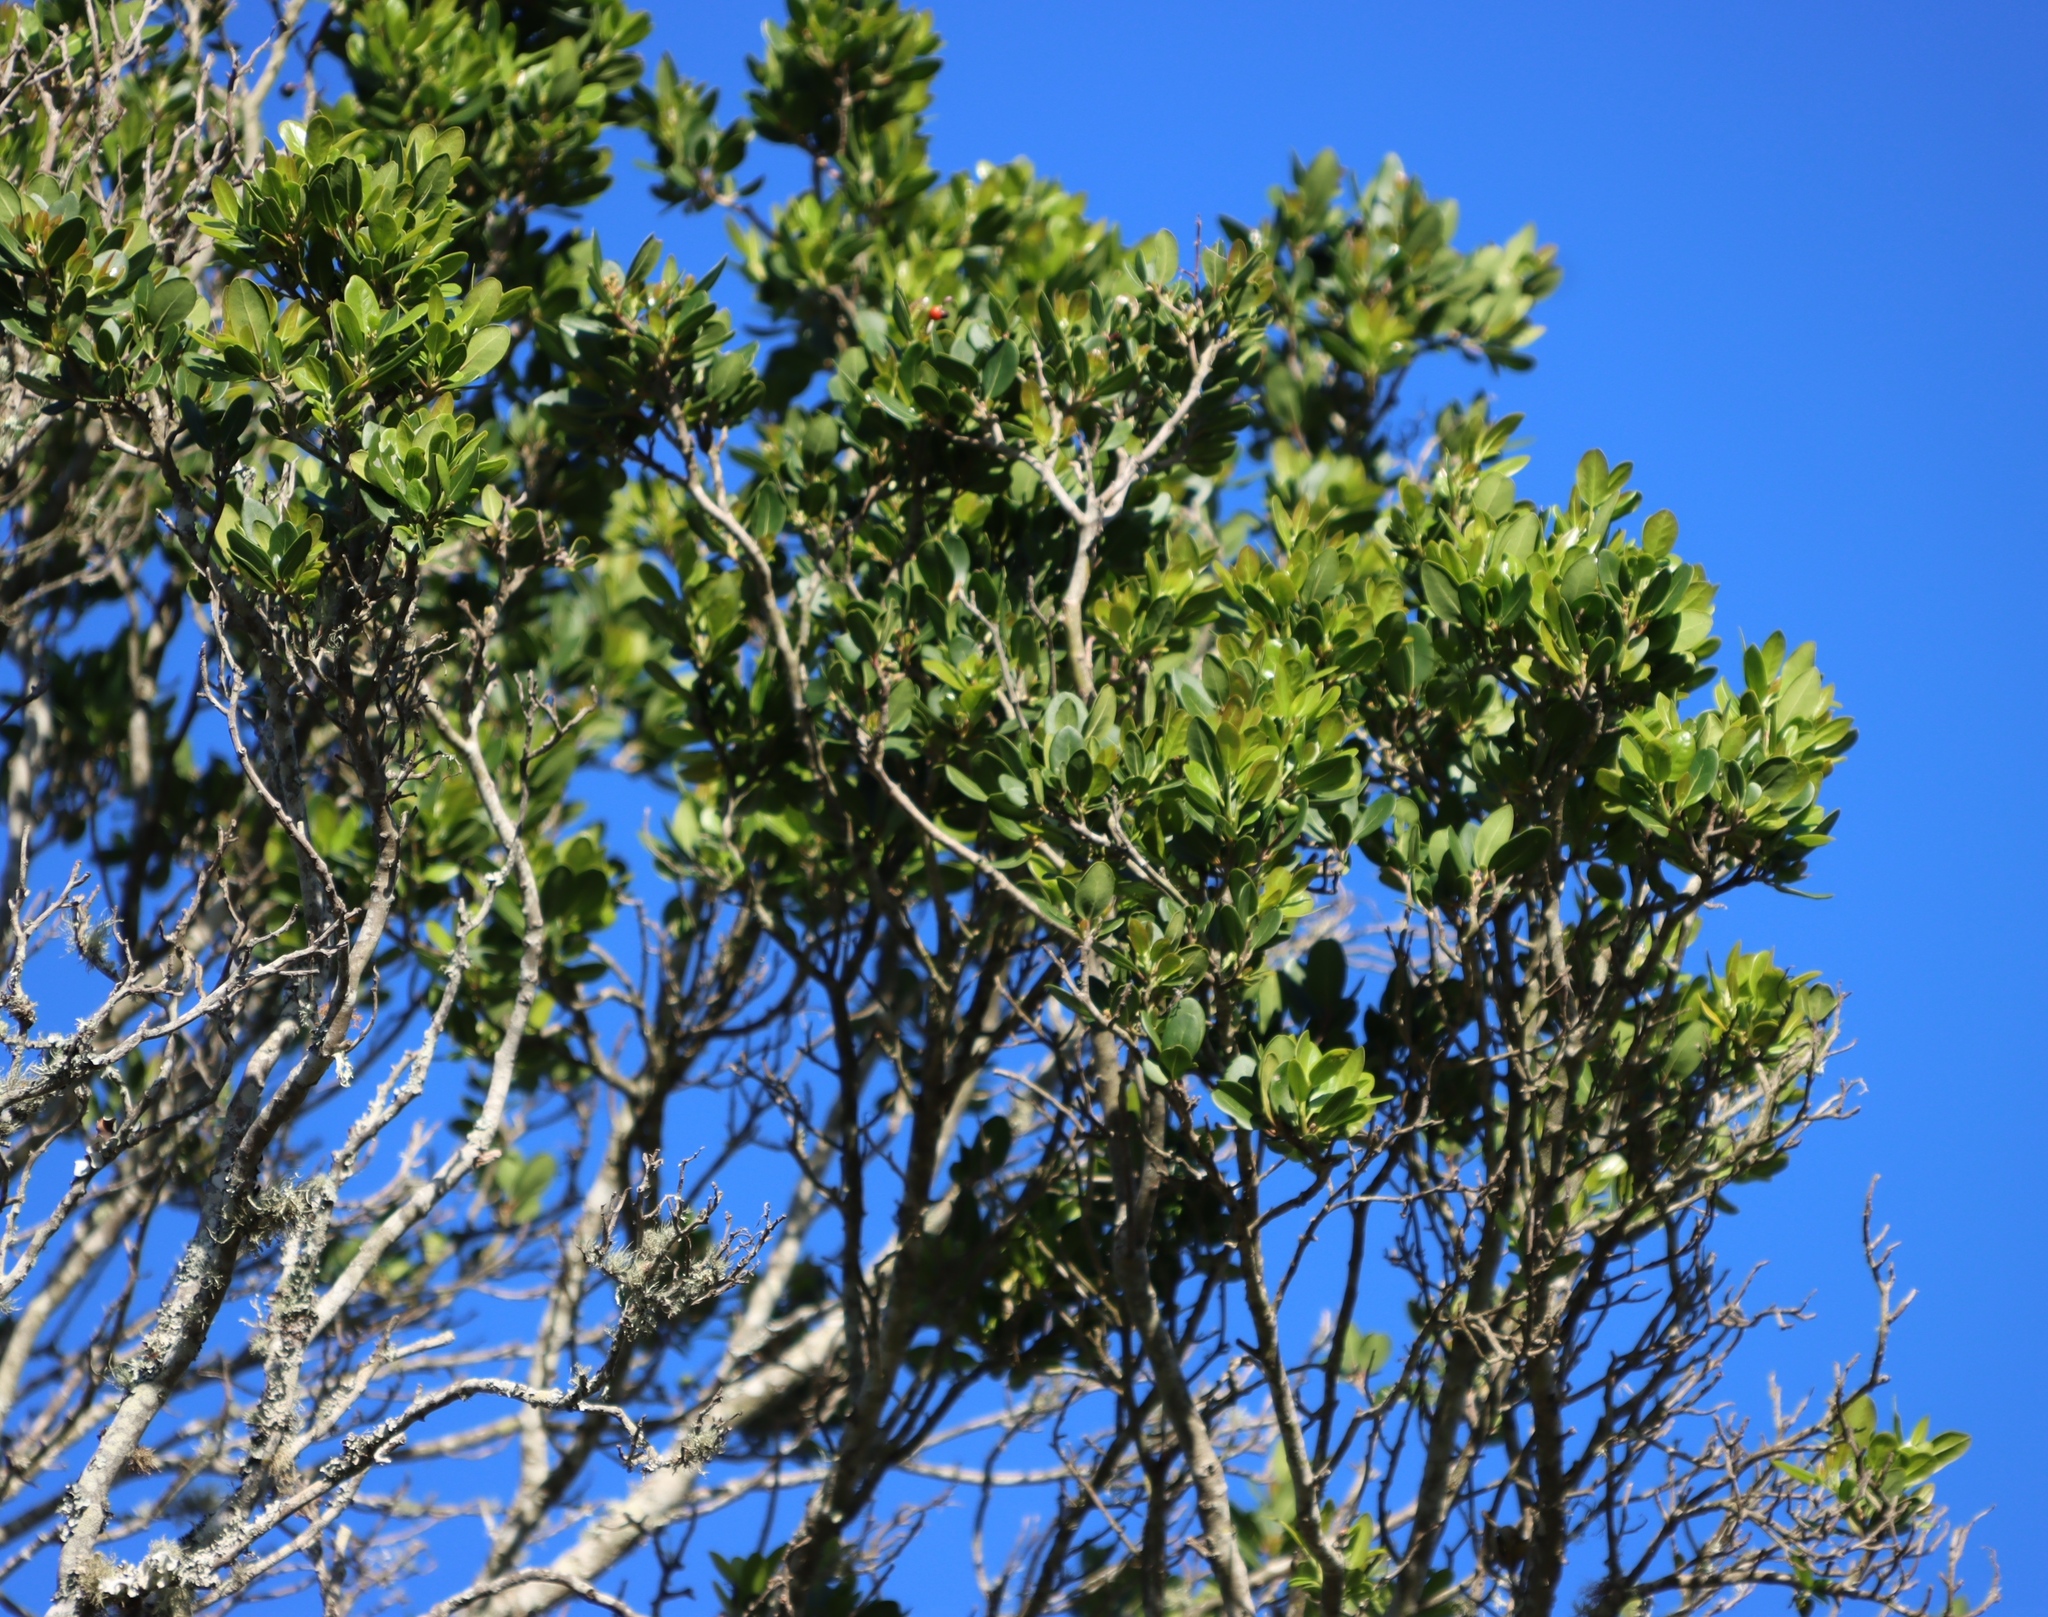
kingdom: Plantae
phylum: Tracheophyta
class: Magnoliopsida
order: Metteniusales
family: Metteniusaceae
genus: Apodytes
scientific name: Apodytes dimidiata
